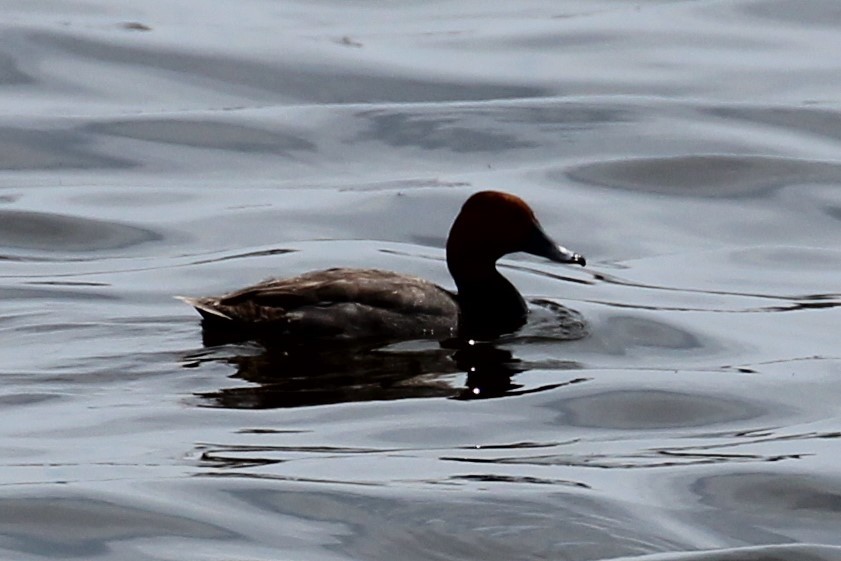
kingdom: Animalia
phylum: Chordata
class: Aves
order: Anseriformes
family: Anatidae
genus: Aythya
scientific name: Aythya americana
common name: Redhead
